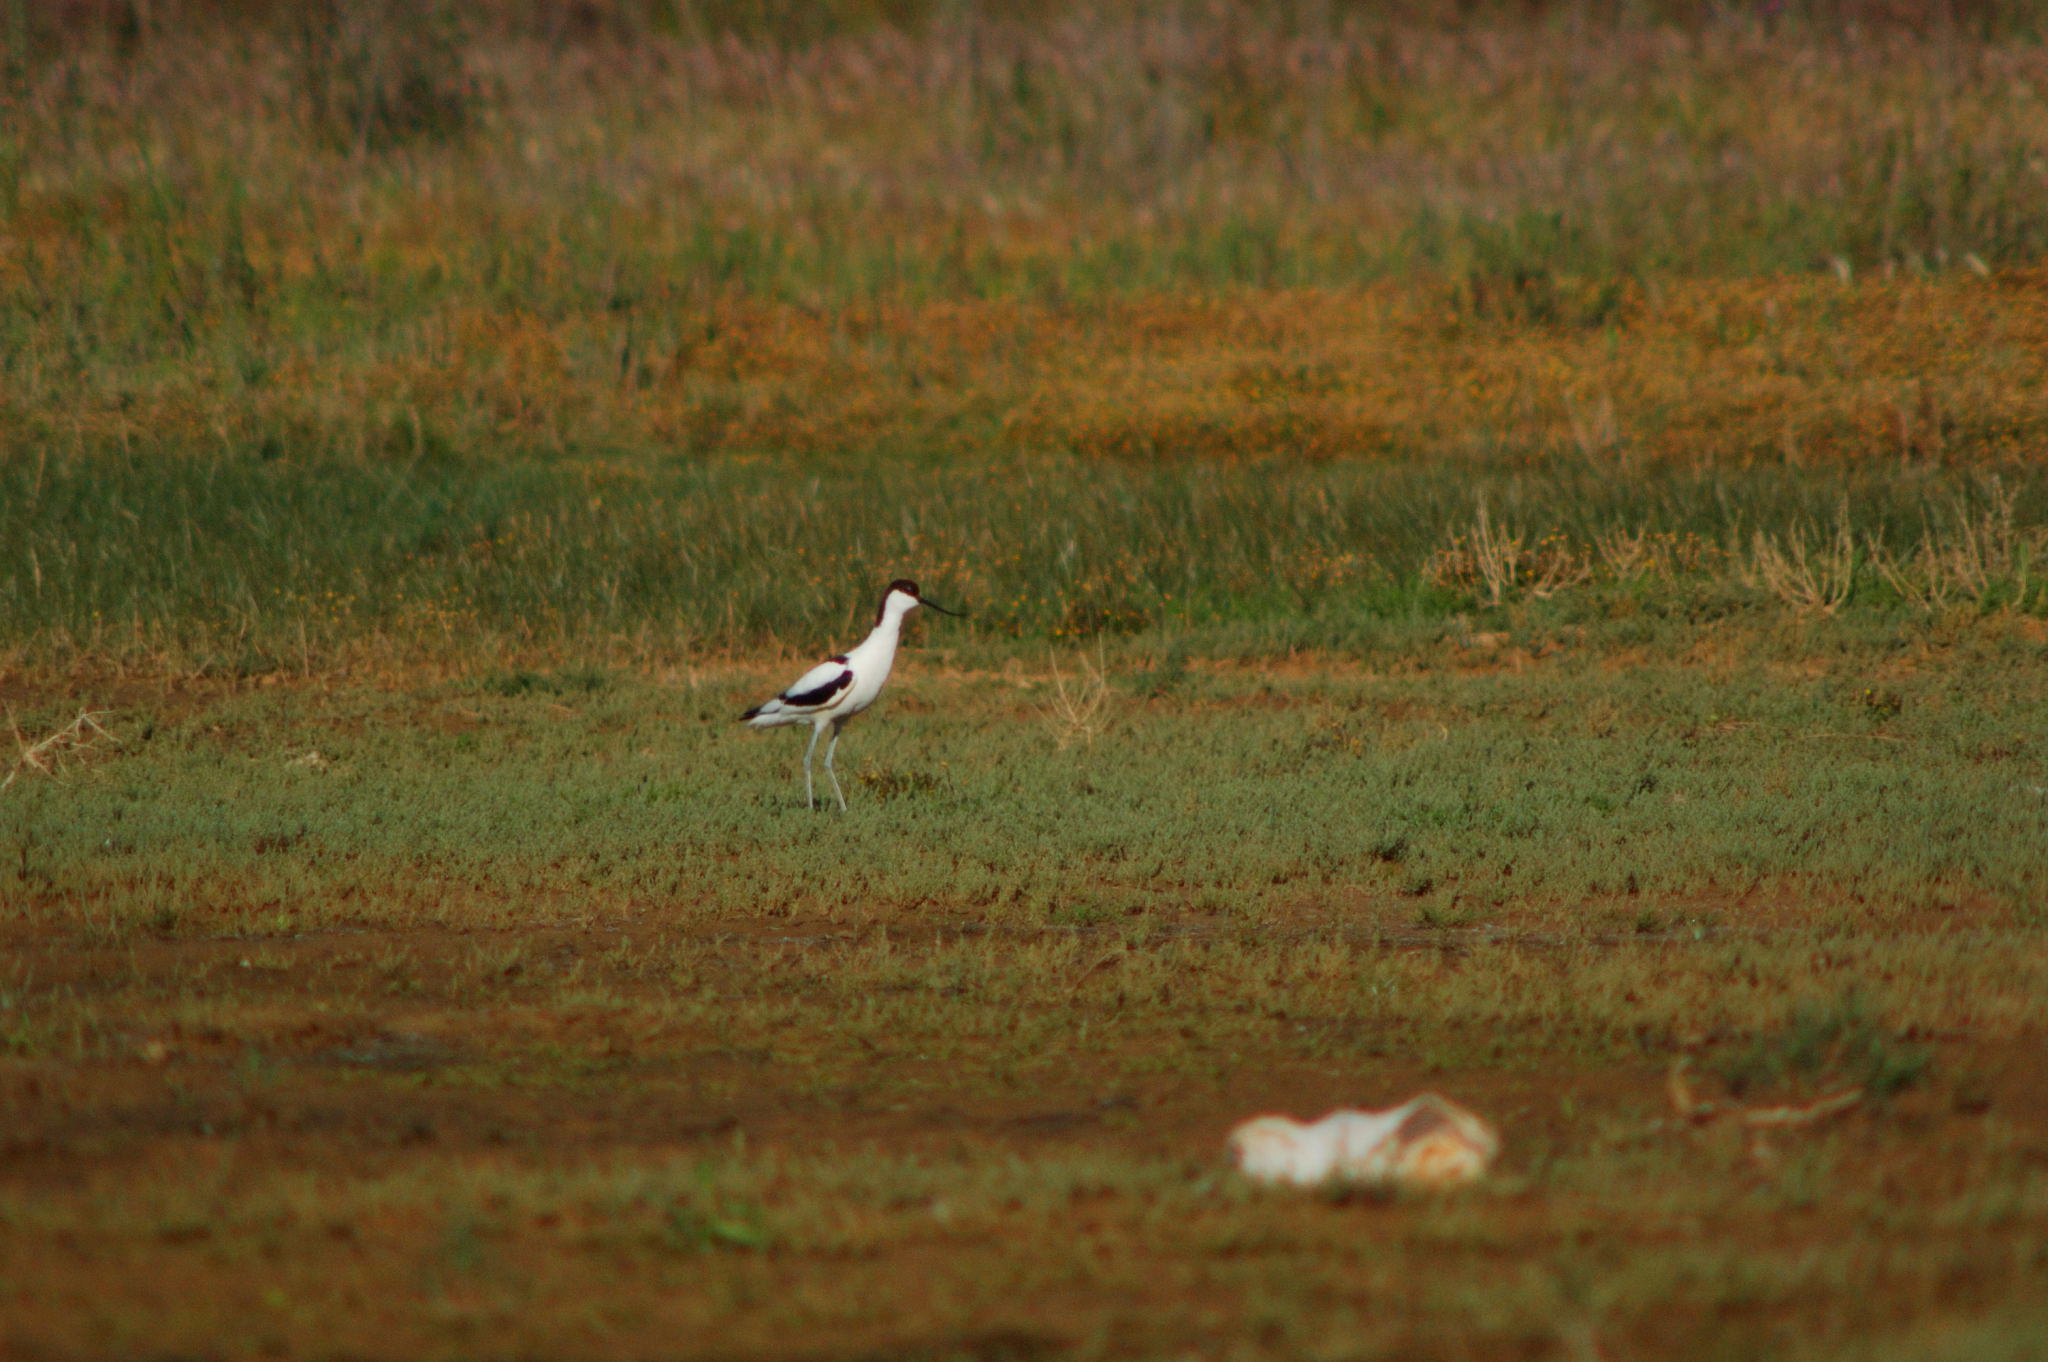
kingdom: Animalia
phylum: Chordata
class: Aves
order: Charadriiformes
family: Recurvirostridae
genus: Recurvirostra
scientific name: Recurvirostra avosetta
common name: Pied avocet
